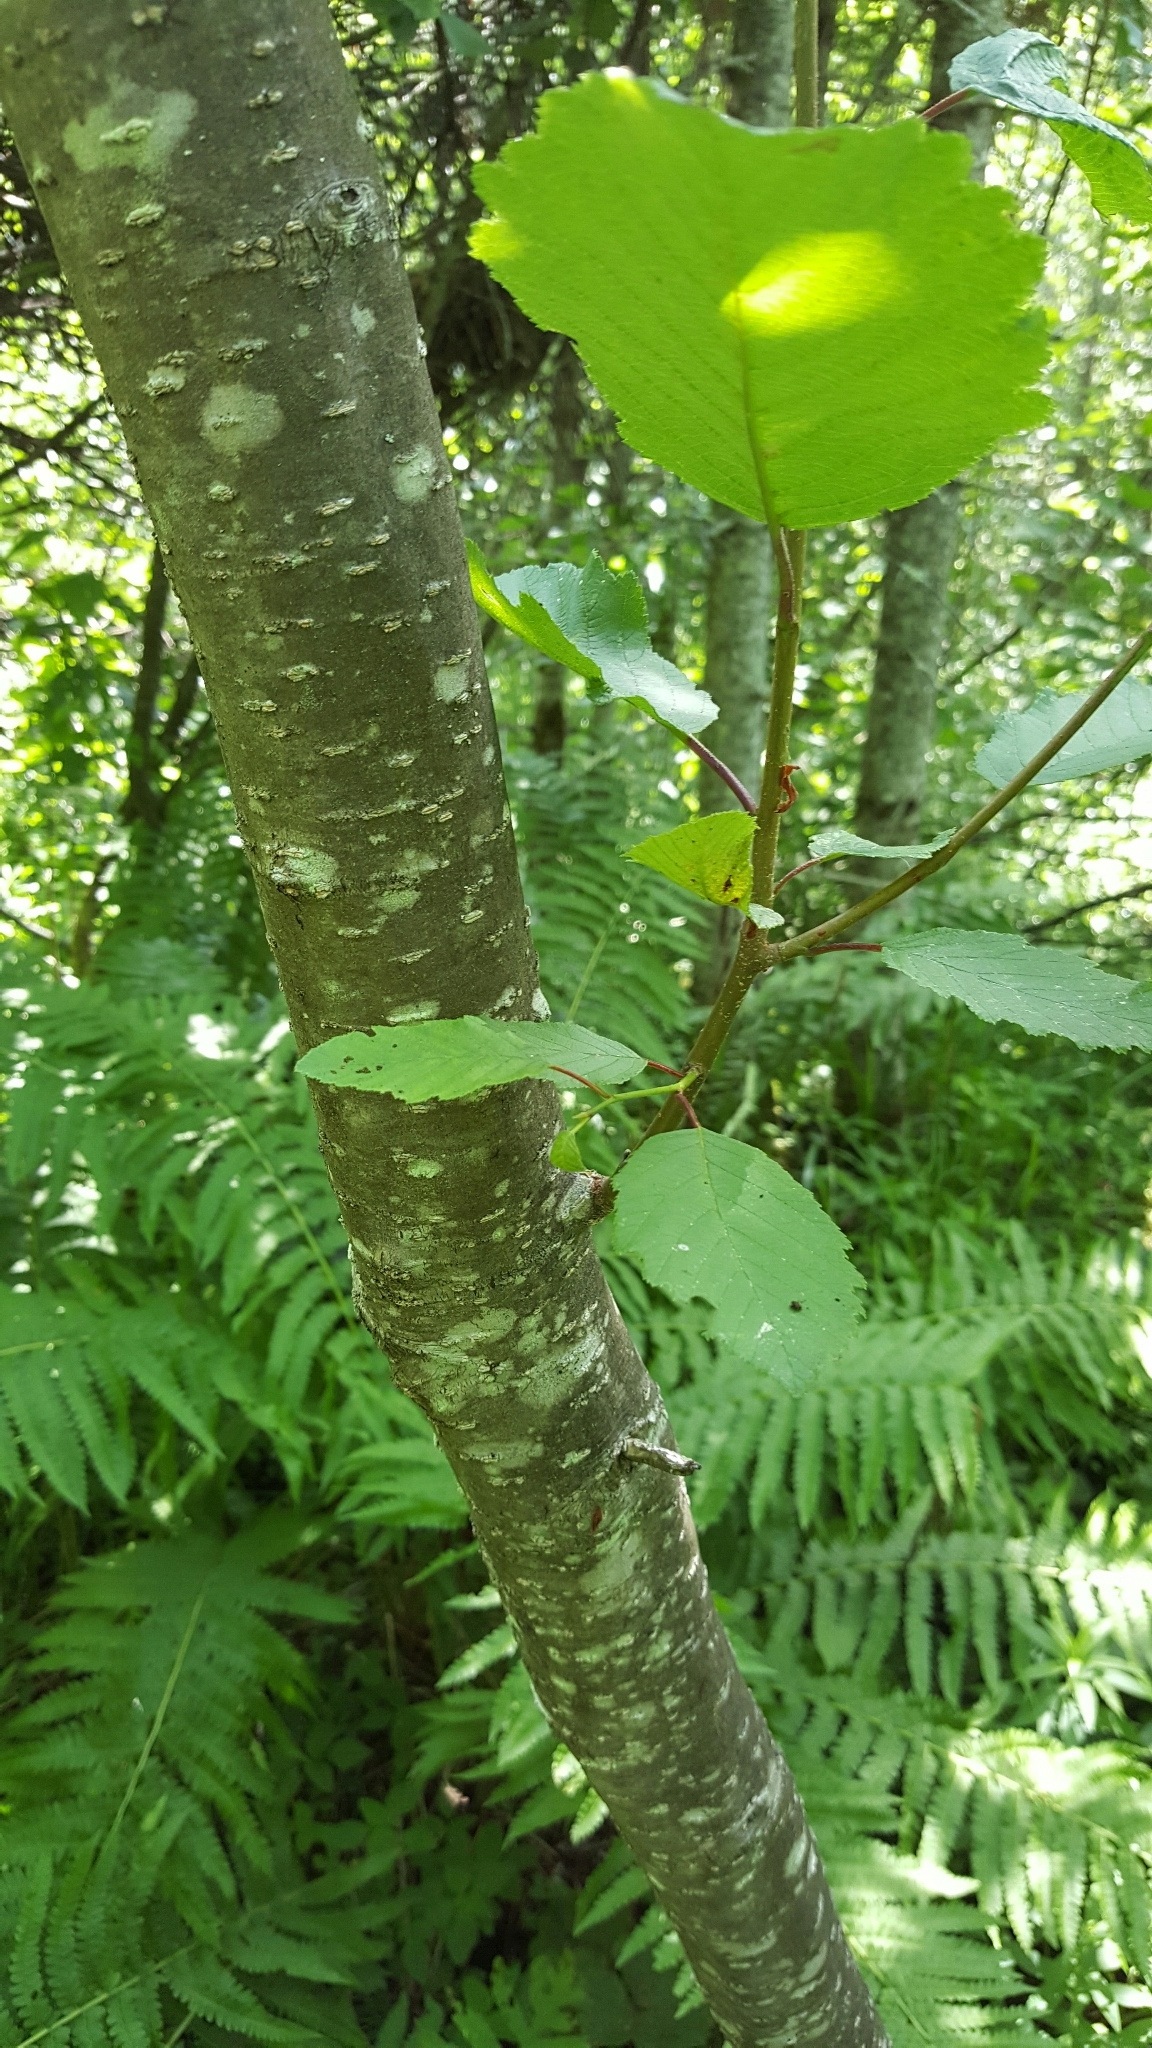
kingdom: Plantae
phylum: Tracheophyta
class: Magnoliopsida
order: Fagales
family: Betulaceae
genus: Alnus
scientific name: Alnus incana
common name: Grey alder
